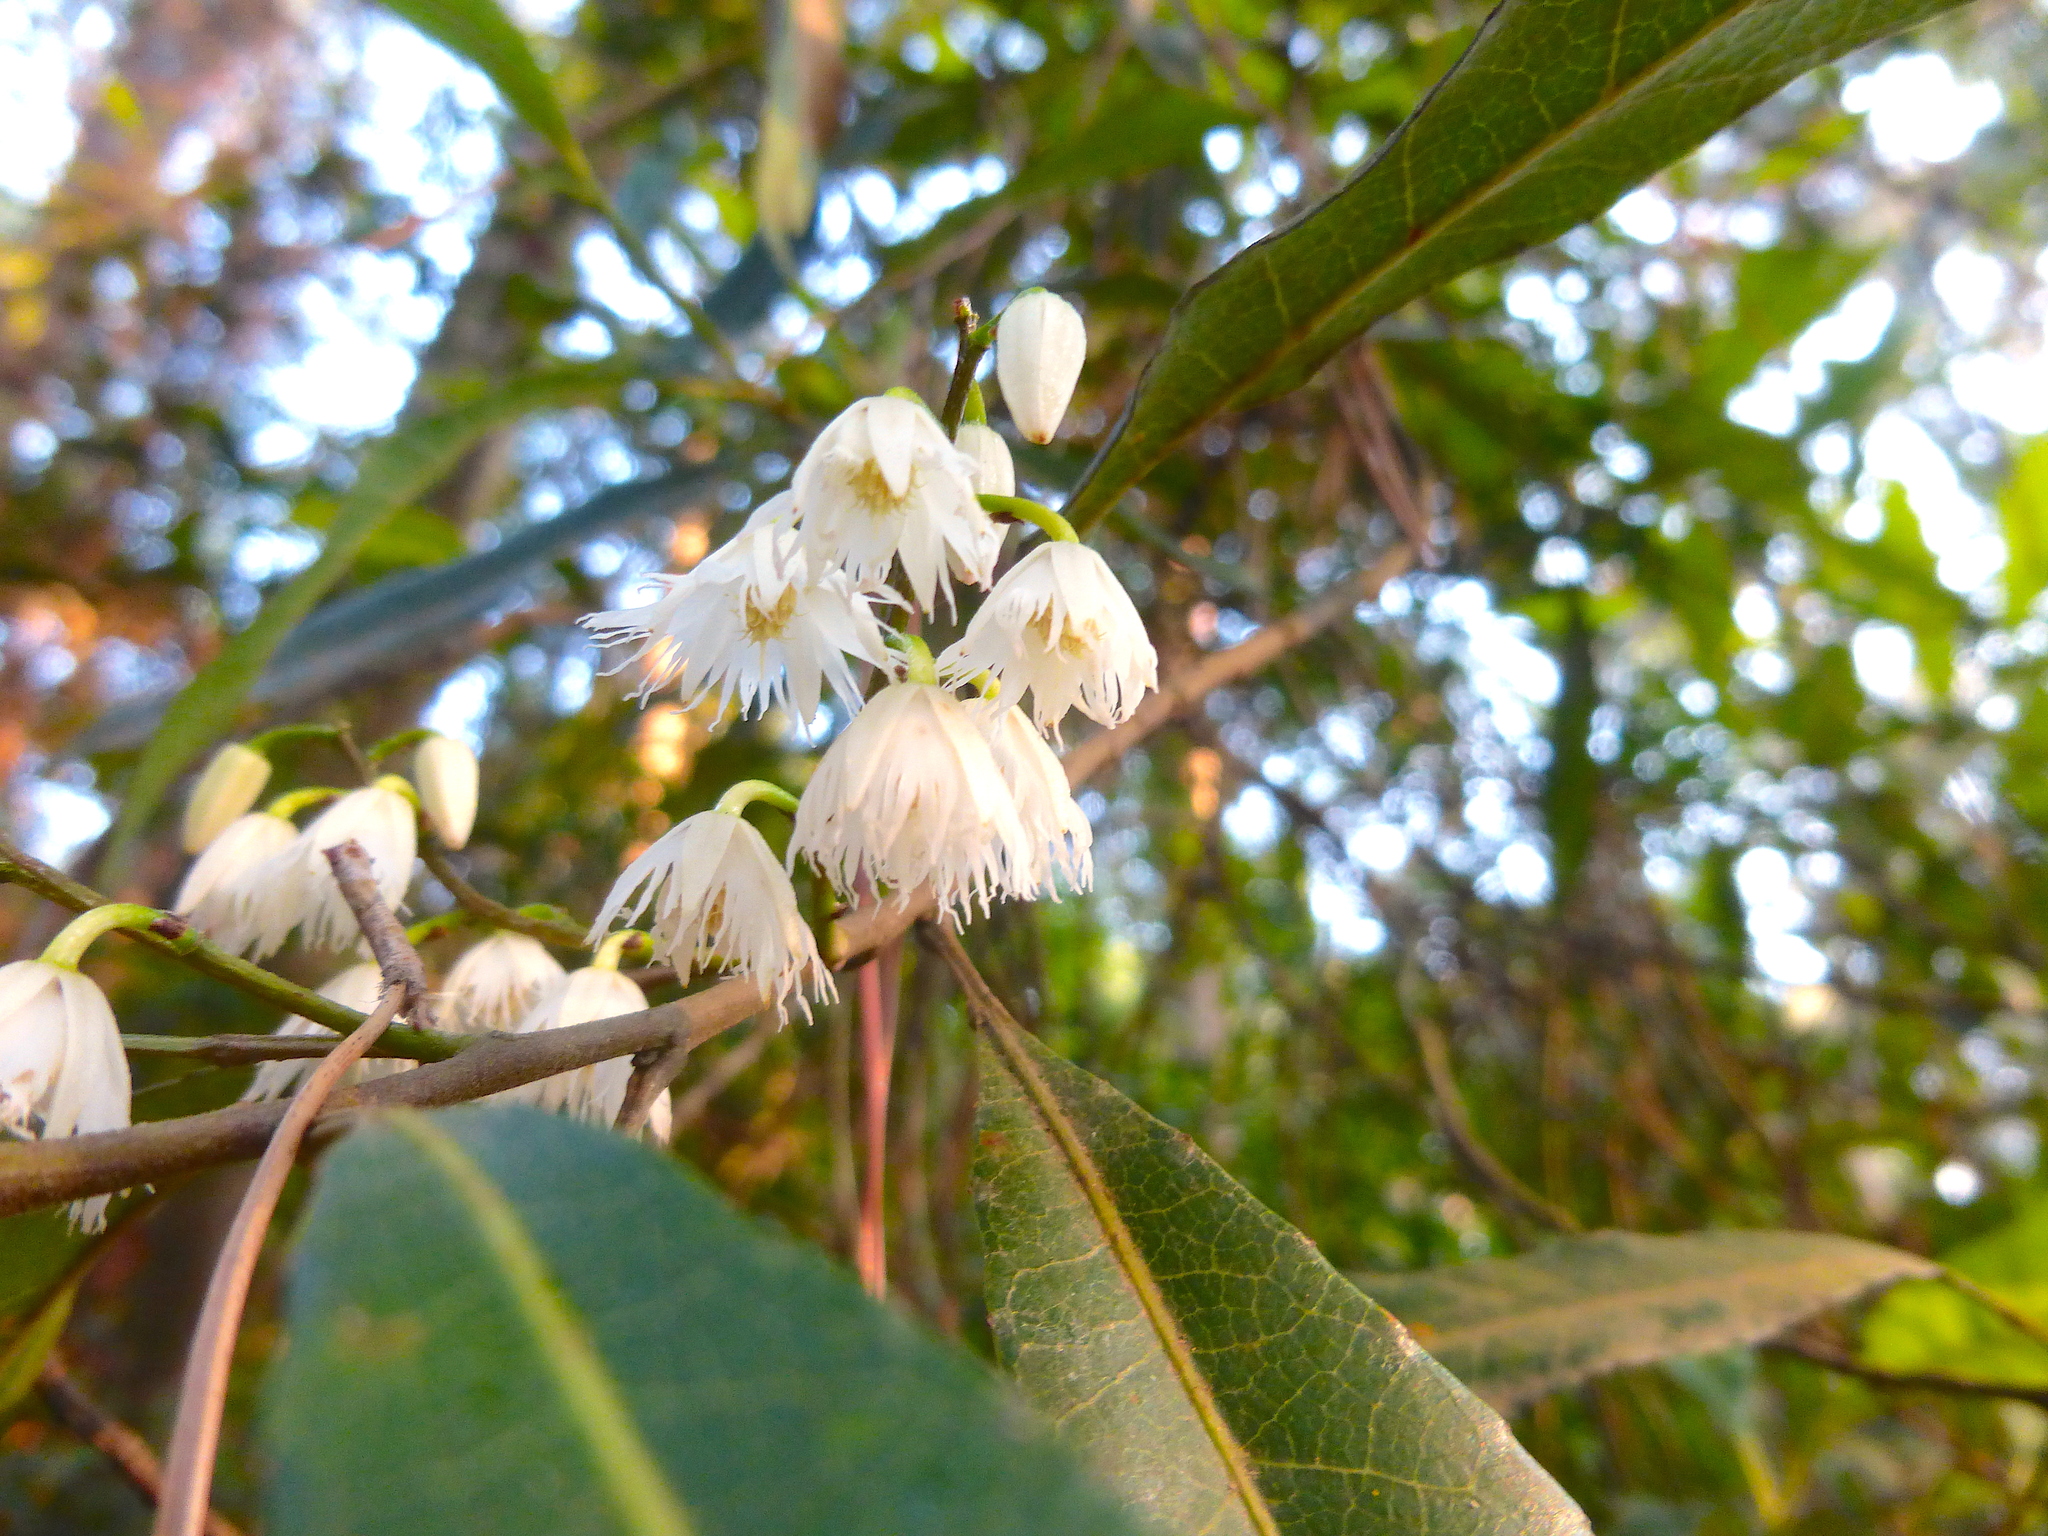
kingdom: Plantae
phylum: Tracheophyta
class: Magnoliopsida
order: Oxalidales
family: Elaeocarpaceae
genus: Elaeocarpus
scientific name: Elaeocarpus reticulatus
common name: Ash quandong
